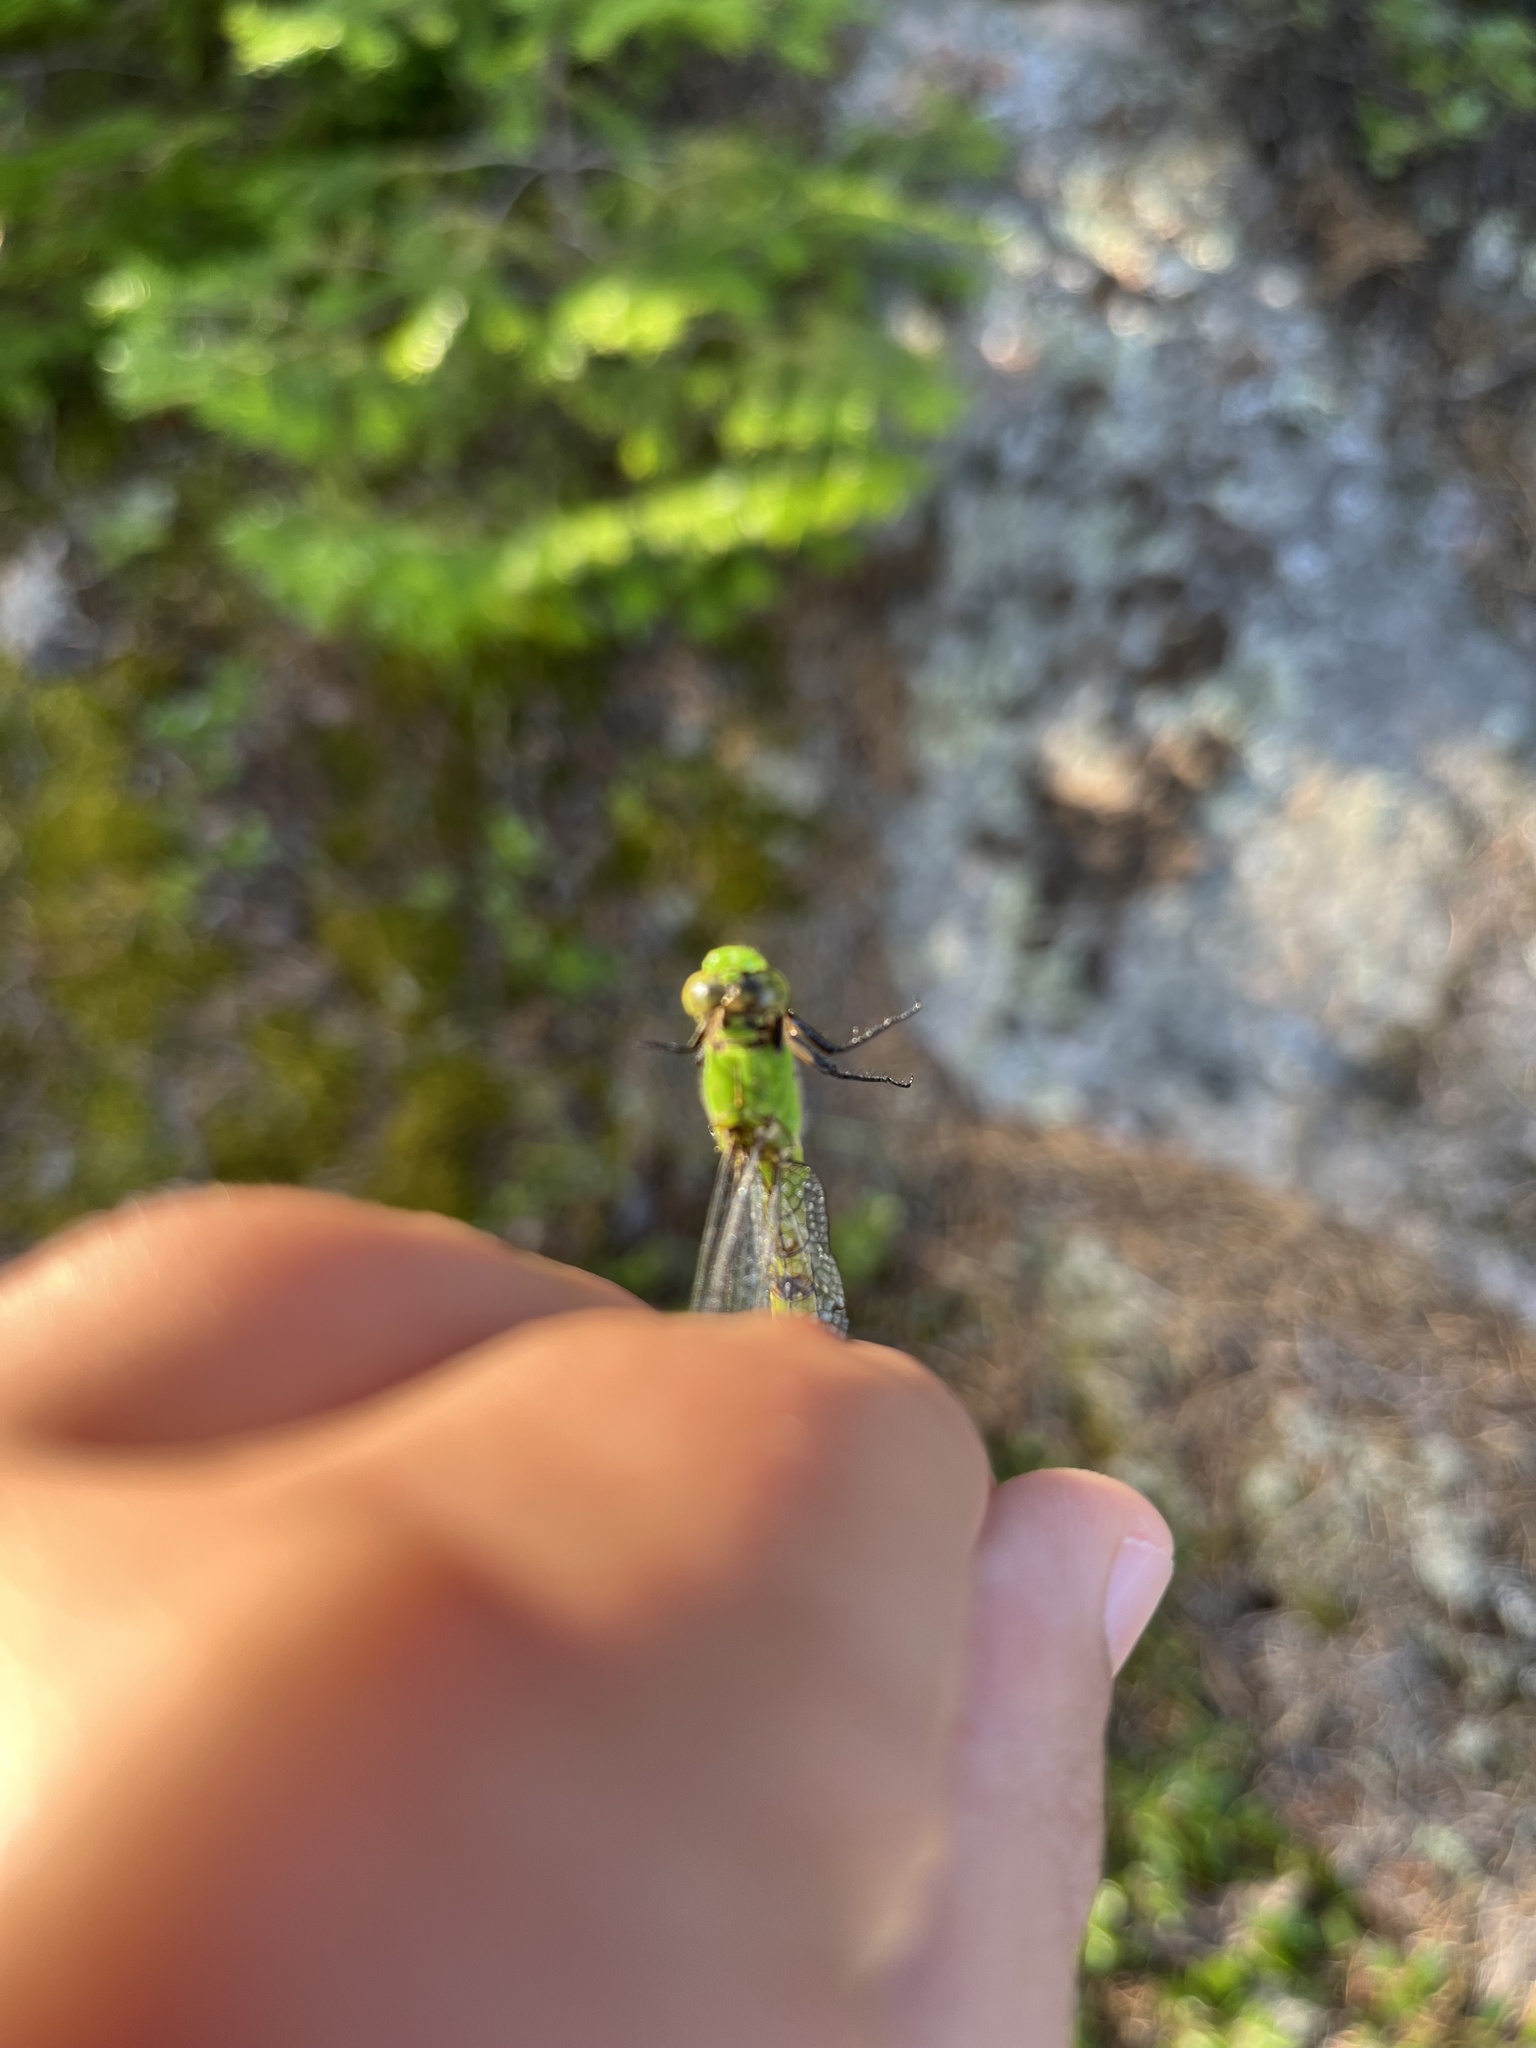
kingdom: Animalia
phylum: Arthropoda
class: Insecta
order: Odonata
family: Libellulidae
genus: Erythemis
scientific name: Erythemis simplicicollis
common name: Eastern pondhawk
